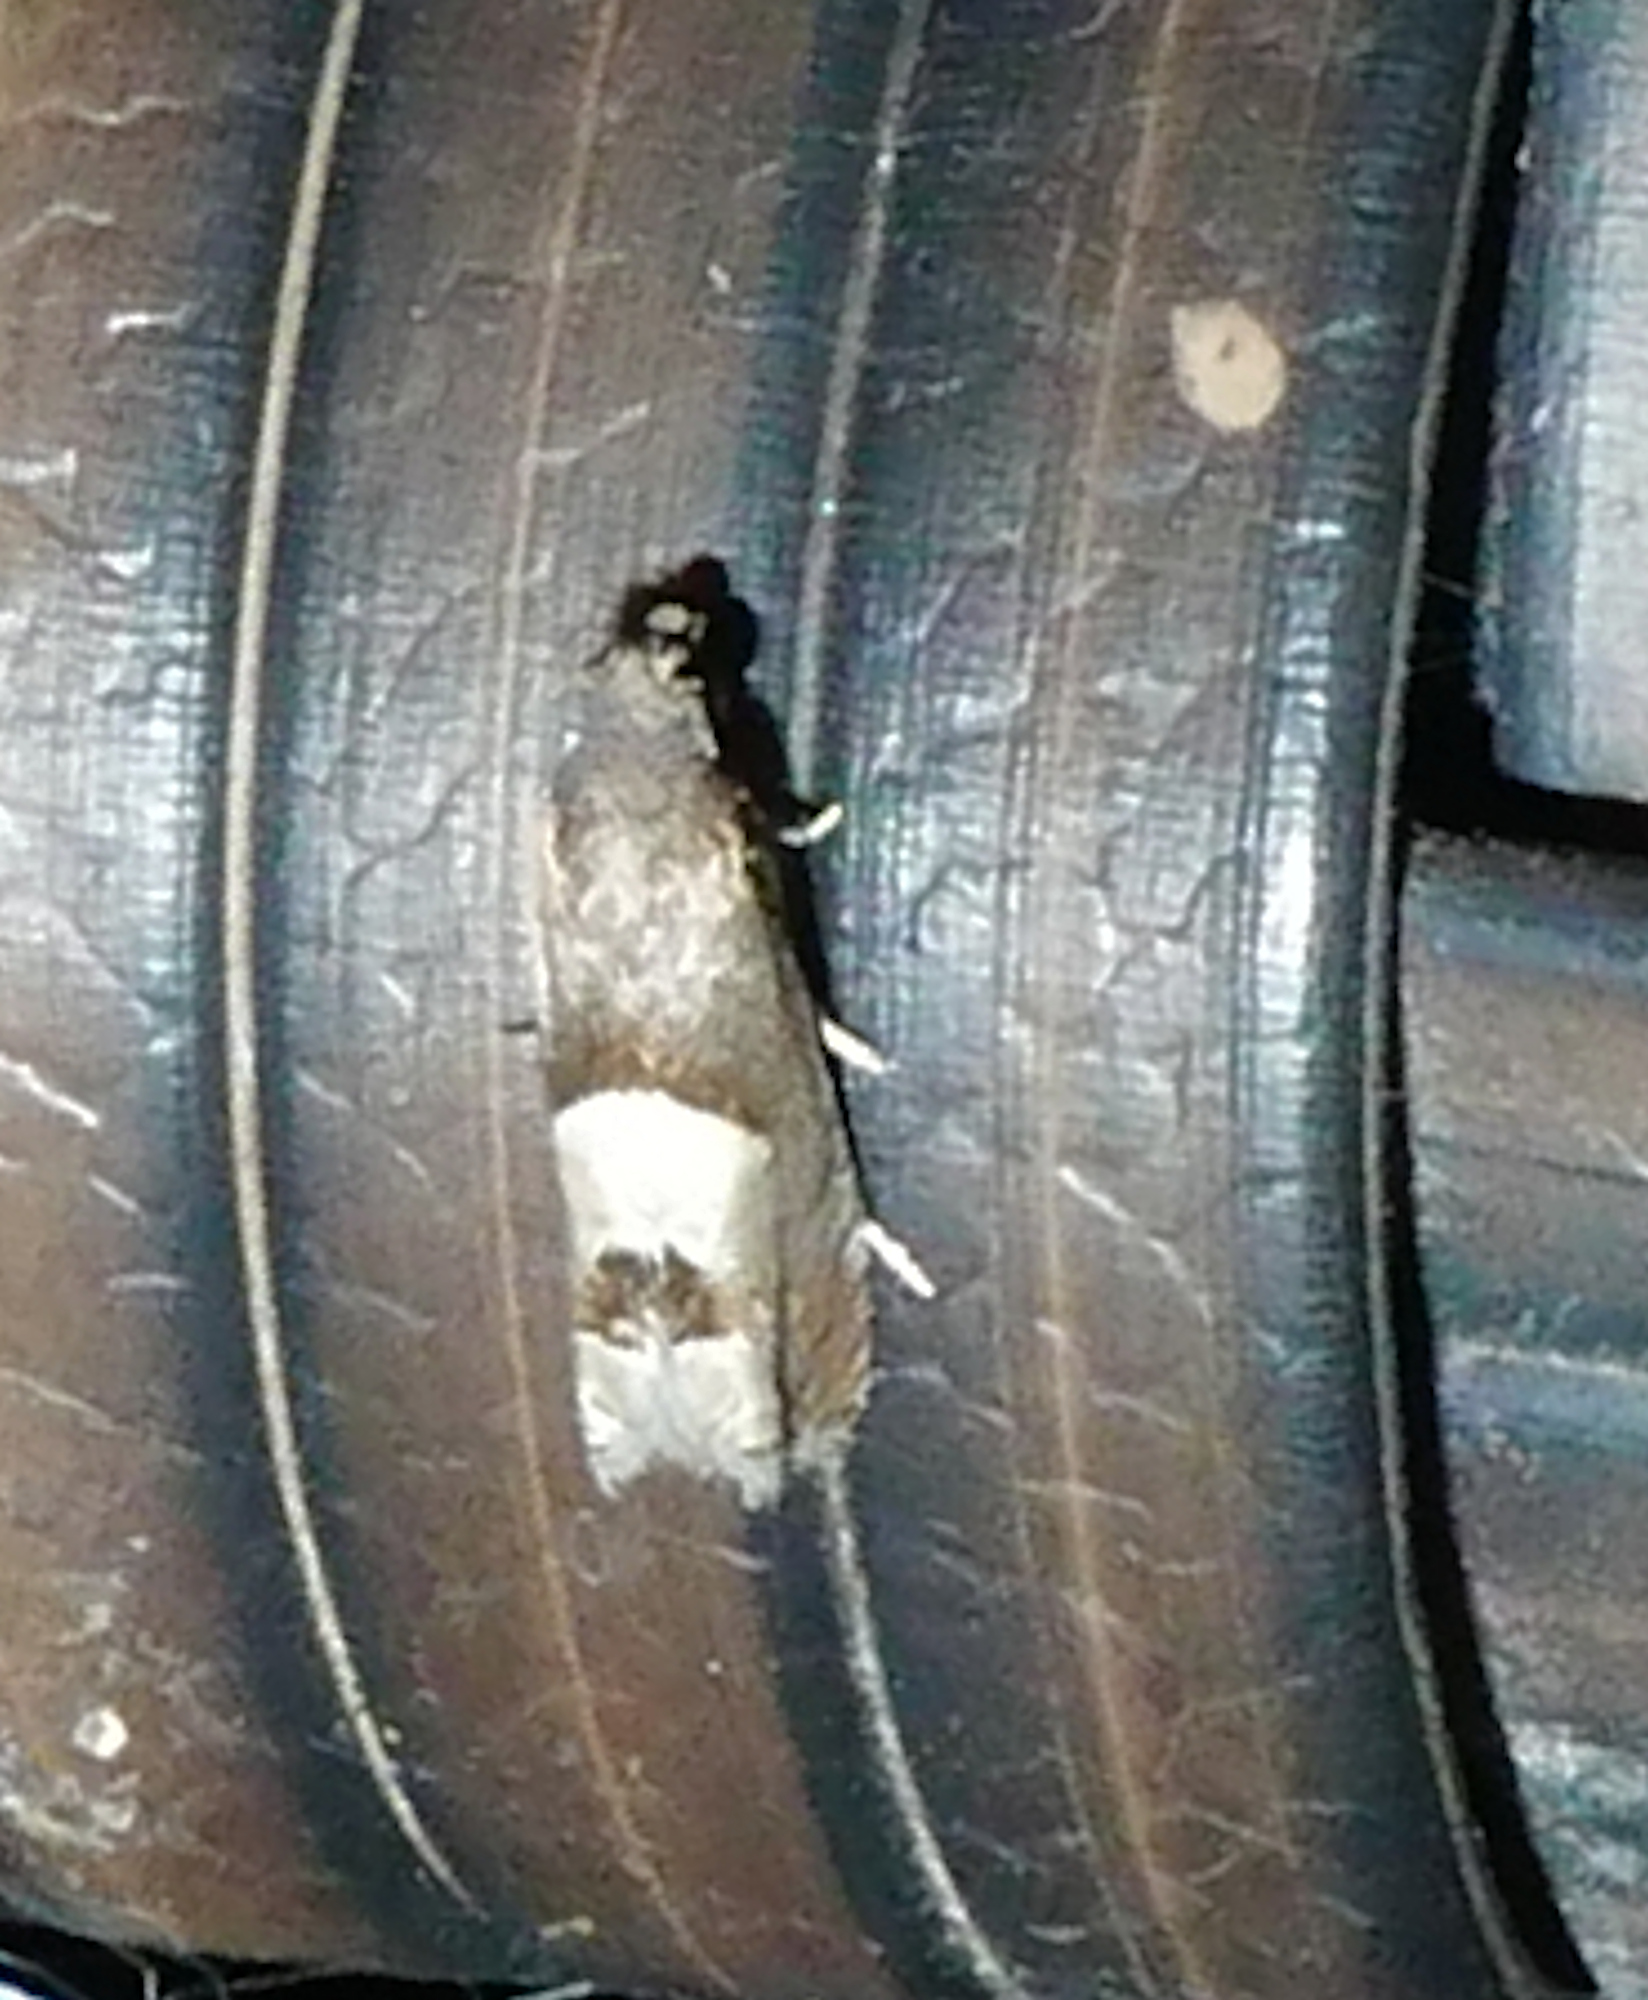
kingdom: Animalia
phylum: Arthropoda
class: Insecta
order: Lepidoptera
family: Tortricidae
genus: Epiblema
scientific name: Epiblema boxcana
